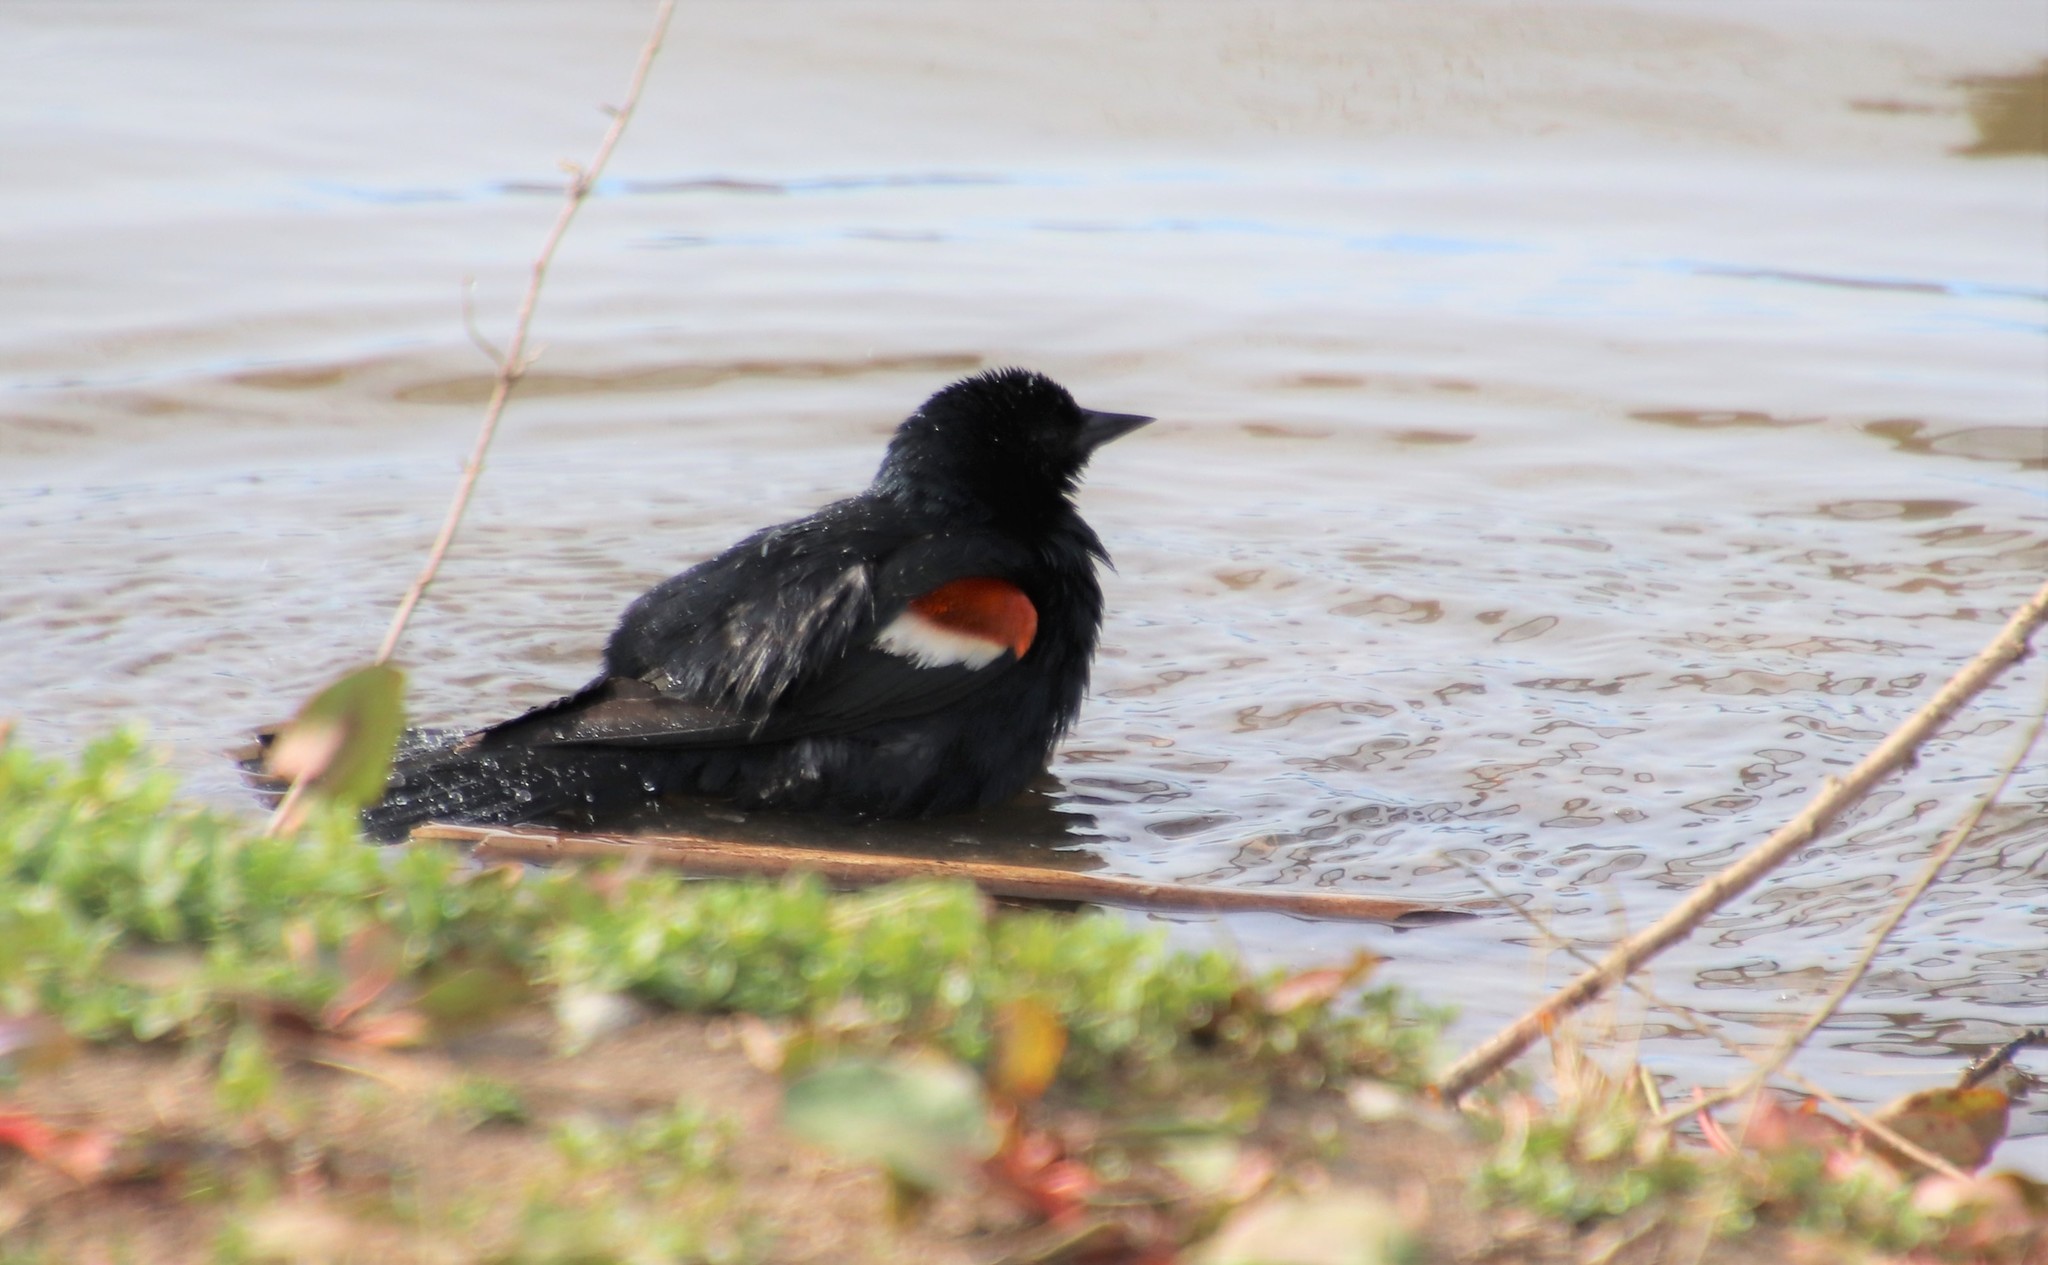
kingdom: Animalia
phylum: Chordata
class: Aves
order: Passeriformes
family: Icteridae
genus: Agelaius
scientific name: Agelaius tricolor
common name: Tricolored blackbird
